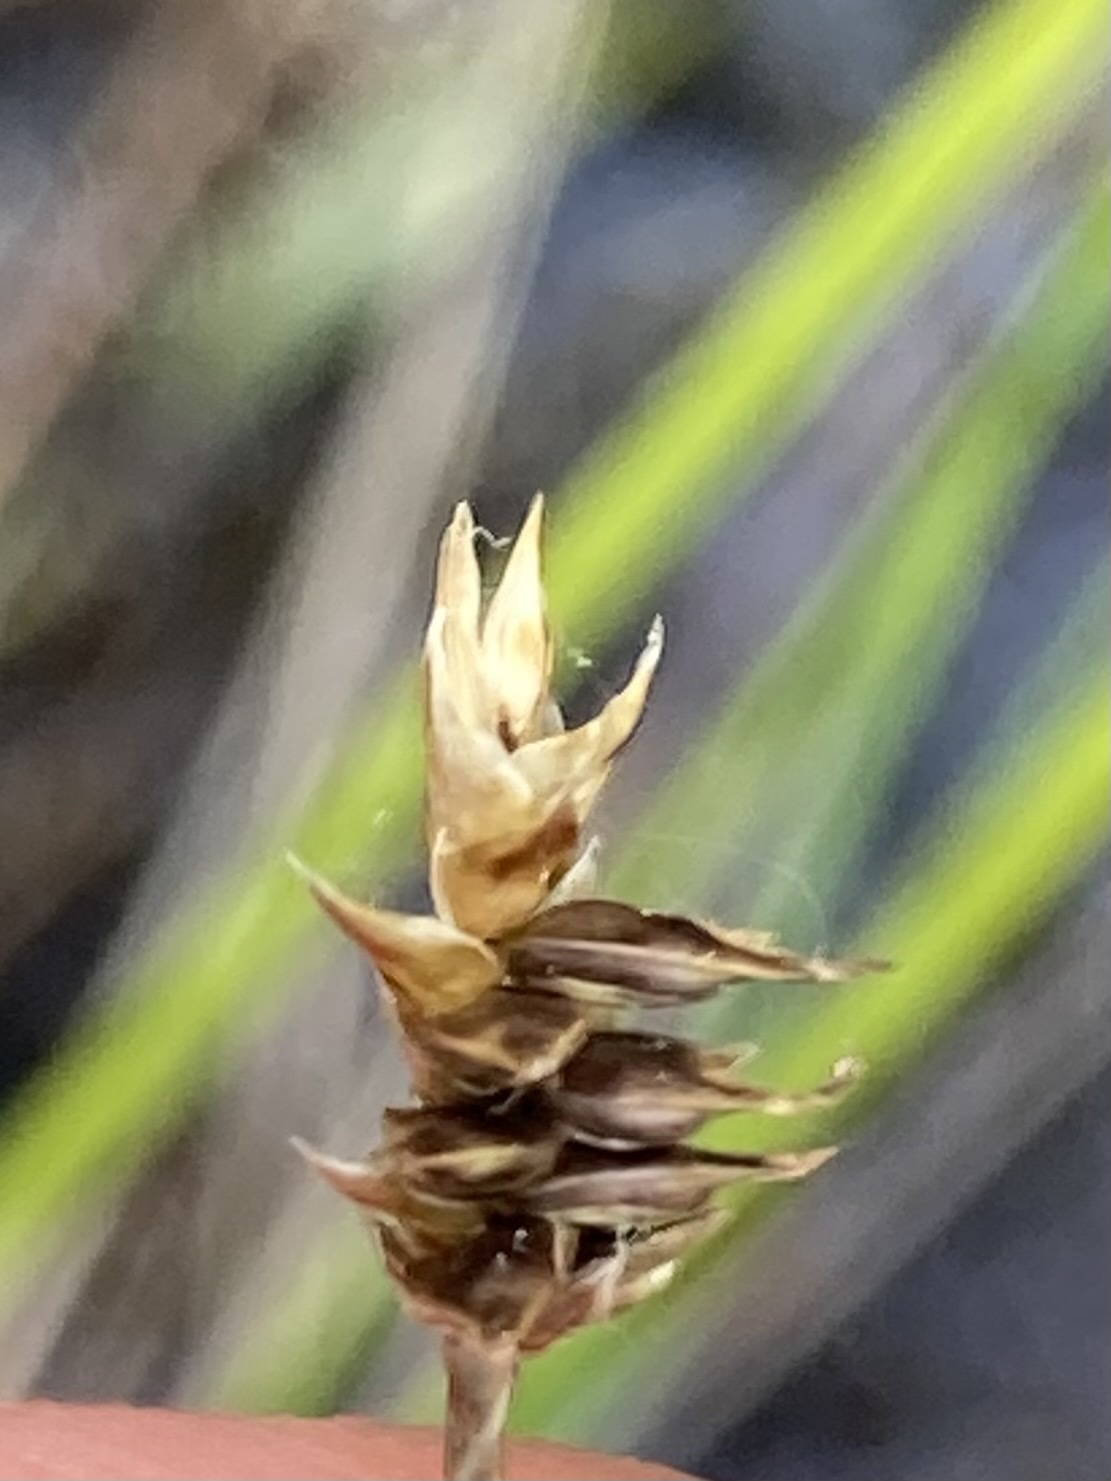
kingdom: Plantae
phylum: Tracheophyta
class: Liliopsida
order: Poales
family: Cyperaceae
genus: Carex
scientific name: Carex exilis
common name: Coastal sedge
